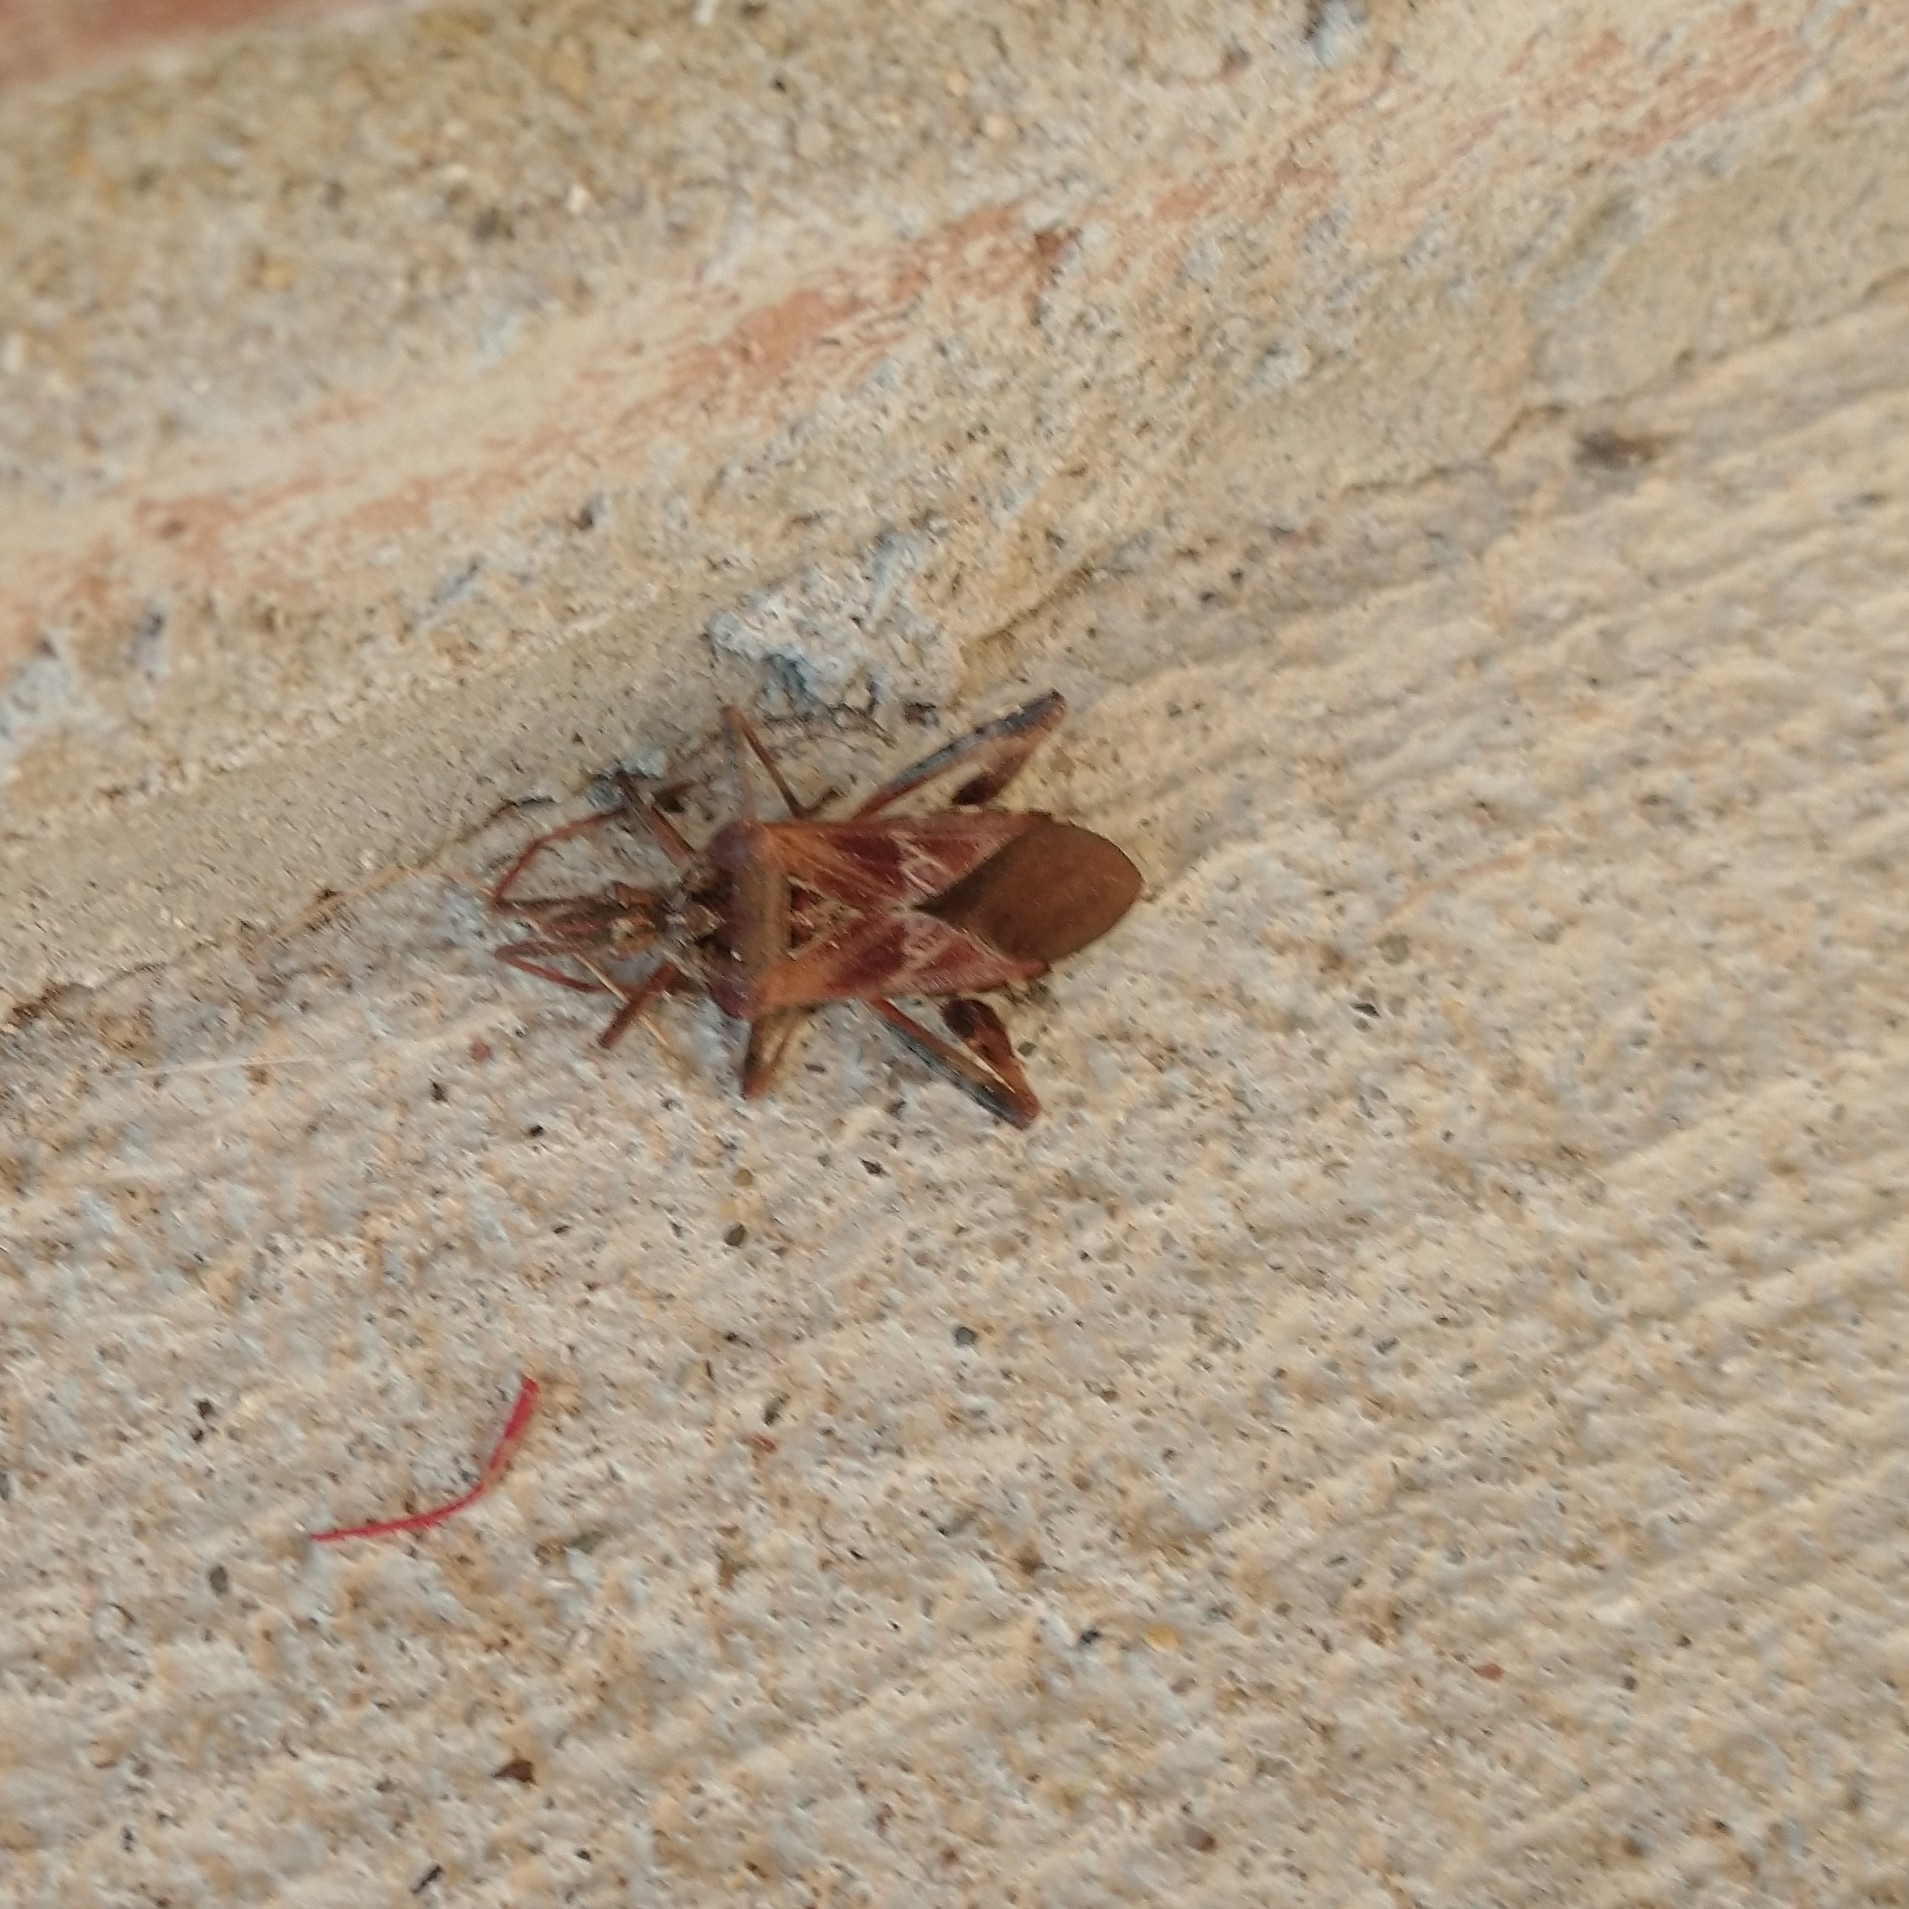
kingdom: Animalia
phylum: Arthropoda
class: Insecta
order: Hemiptera
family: Coreidae
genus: Leptoglossus
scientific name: Leptoglossus occidentalis
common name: Western conifer-seed bug
